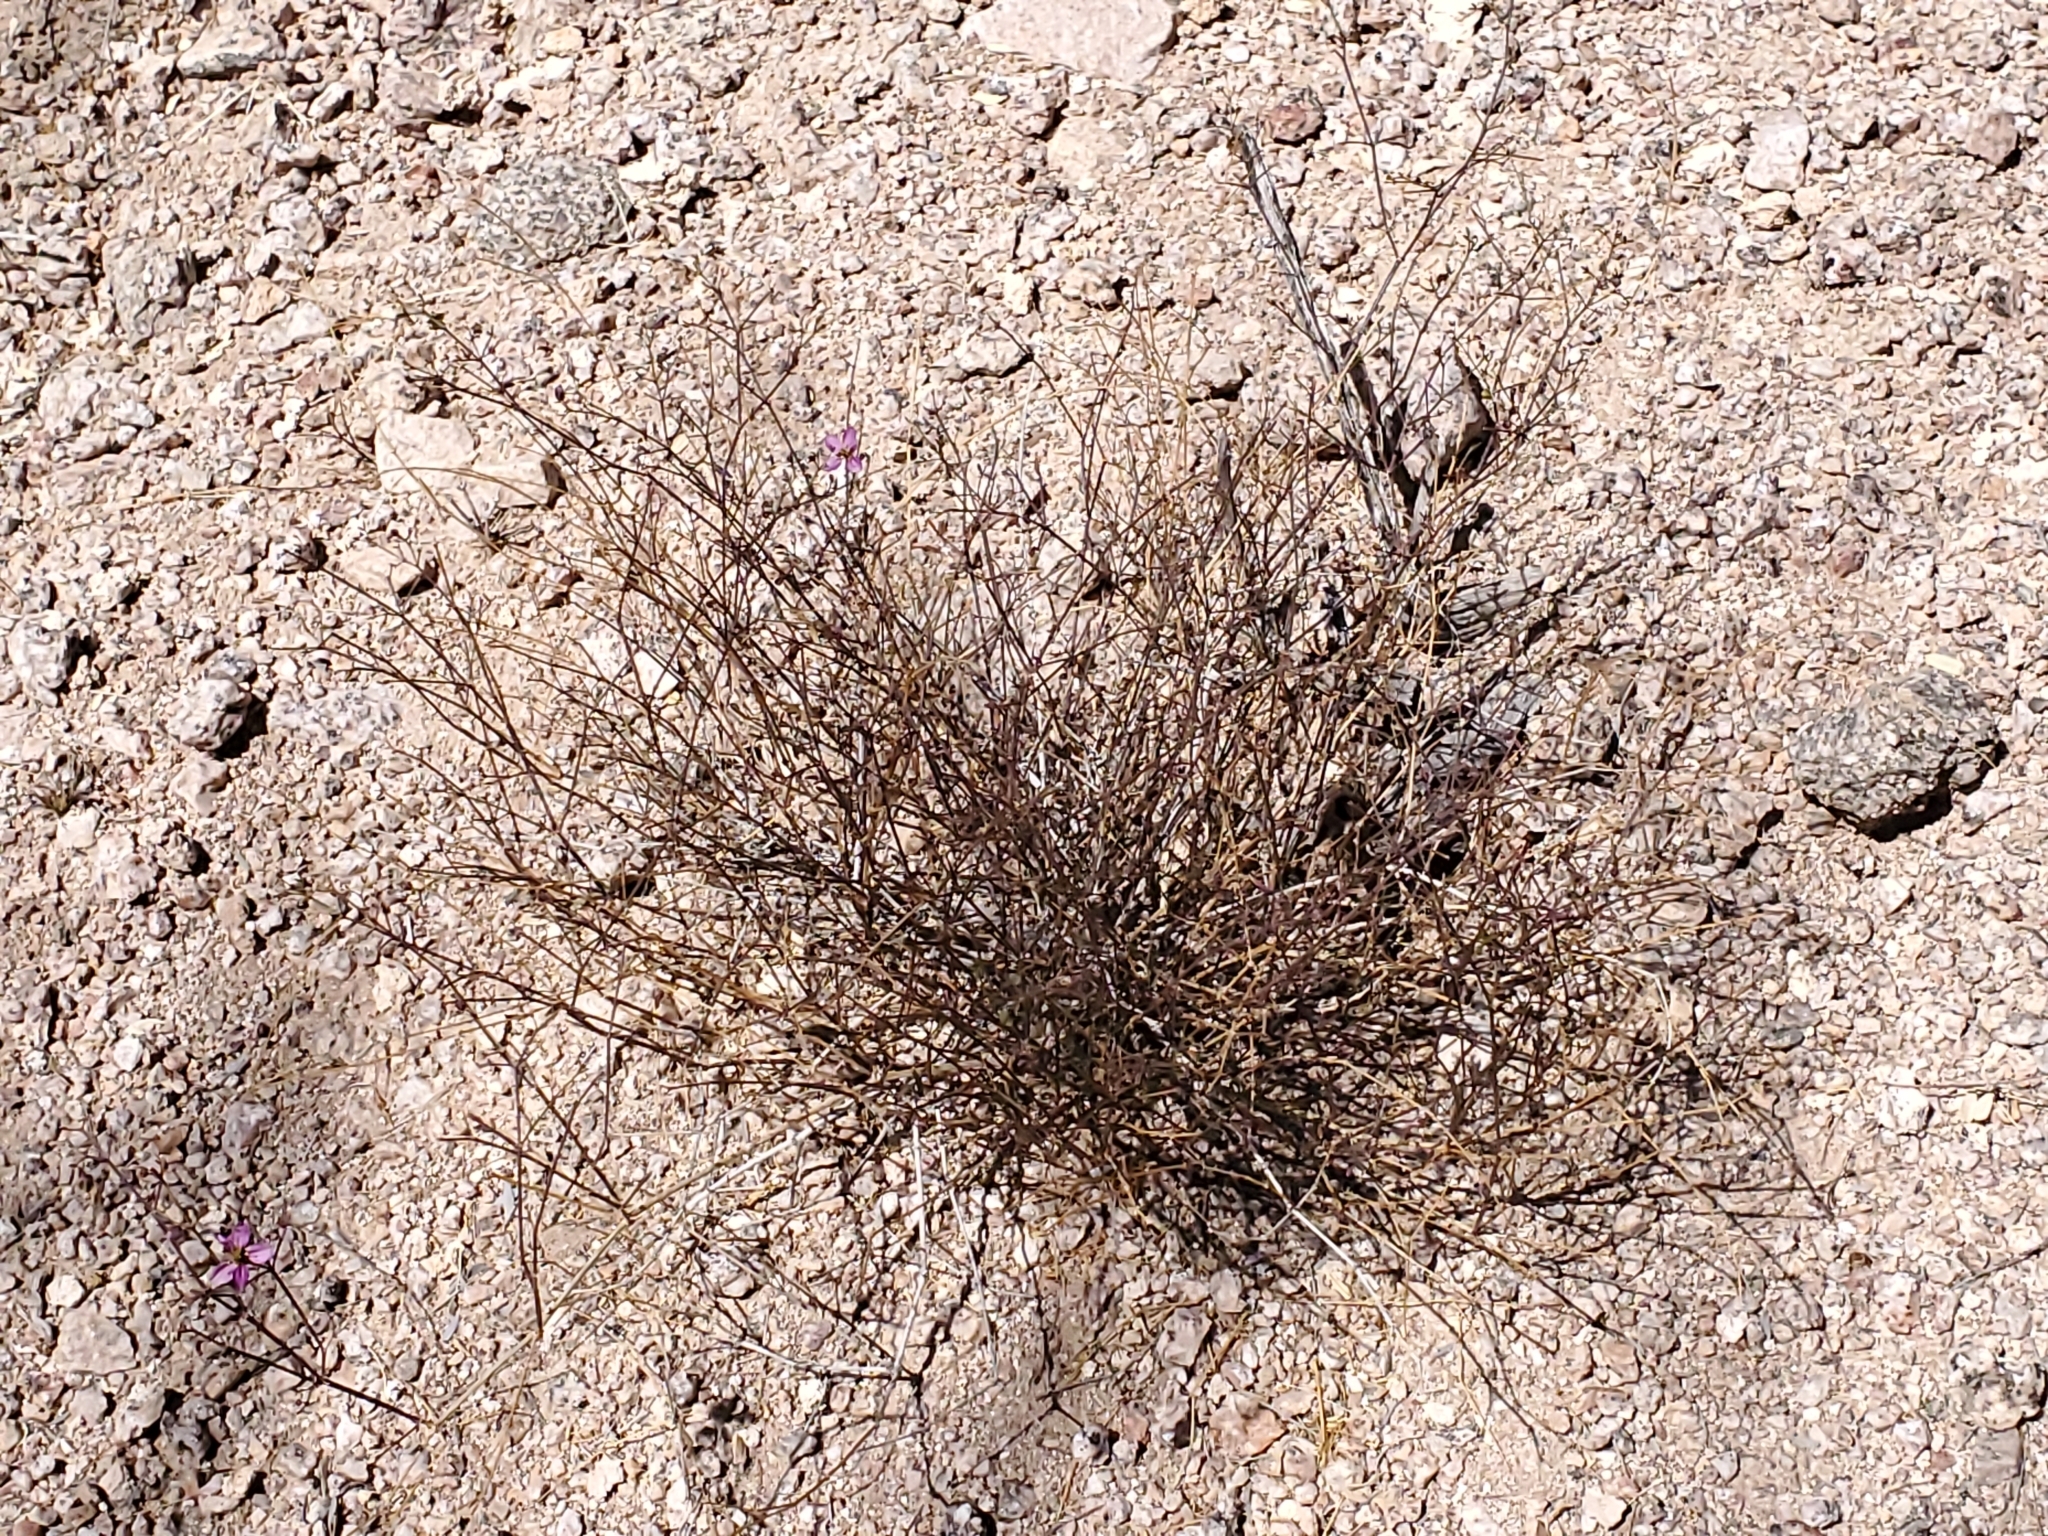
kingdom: Plantae
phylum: Tracheophyta
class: Magnoliopsida
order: Zygophyllales
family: Zygophyllaceae
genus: Fagonia
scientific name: Fagonia laevis
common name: California fagonbush
